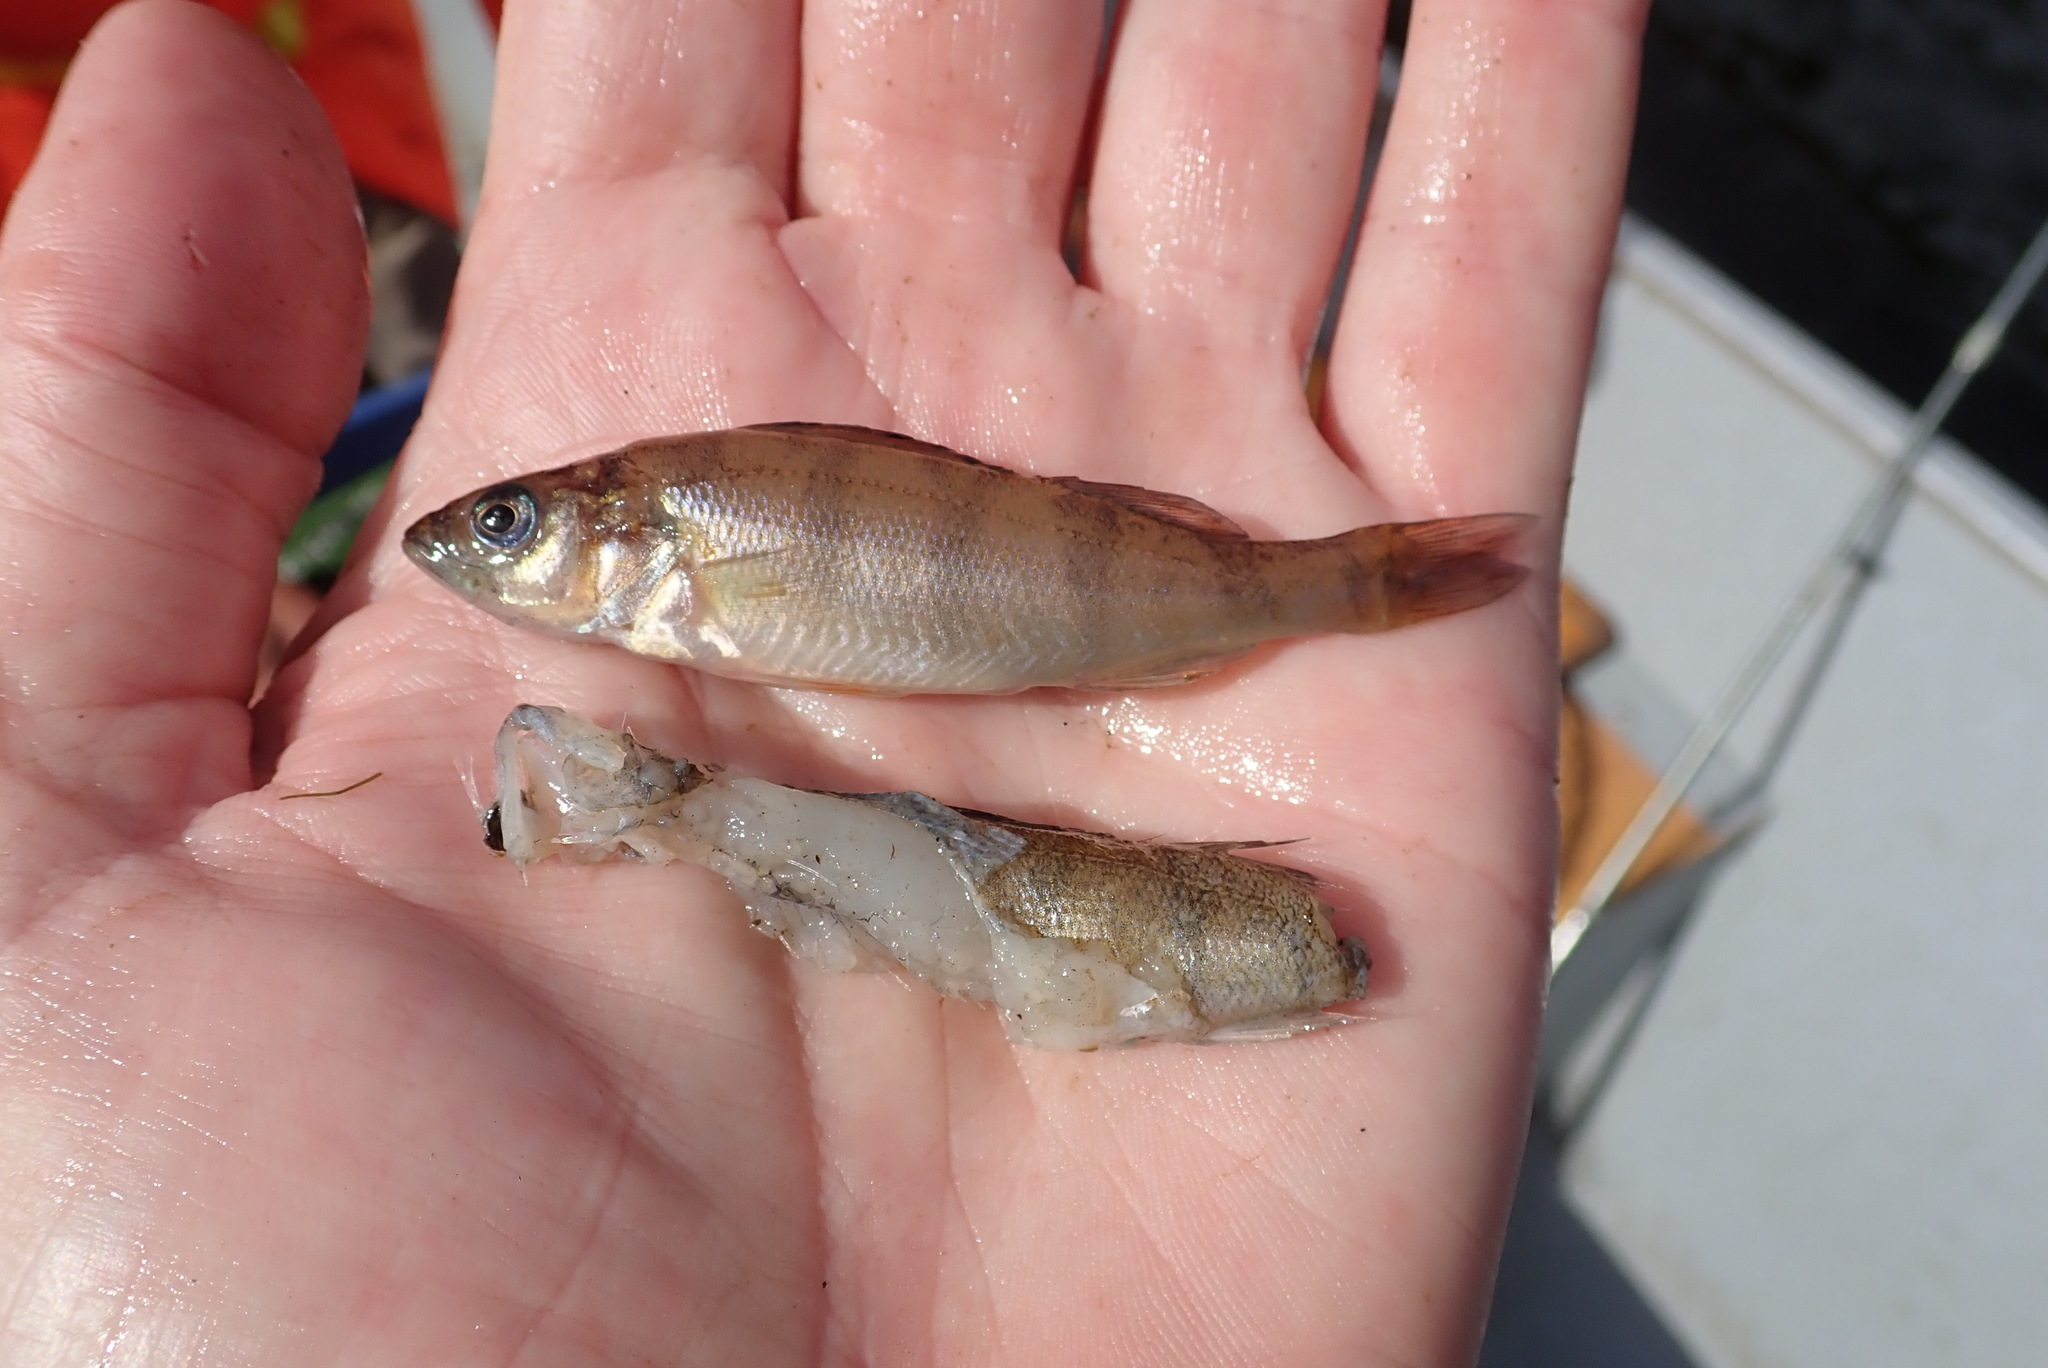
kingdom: Animalia
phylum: Chordata
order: Perciformes
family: Percidae
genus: Perca
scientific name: Perca flavescens
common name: Yellow perch
